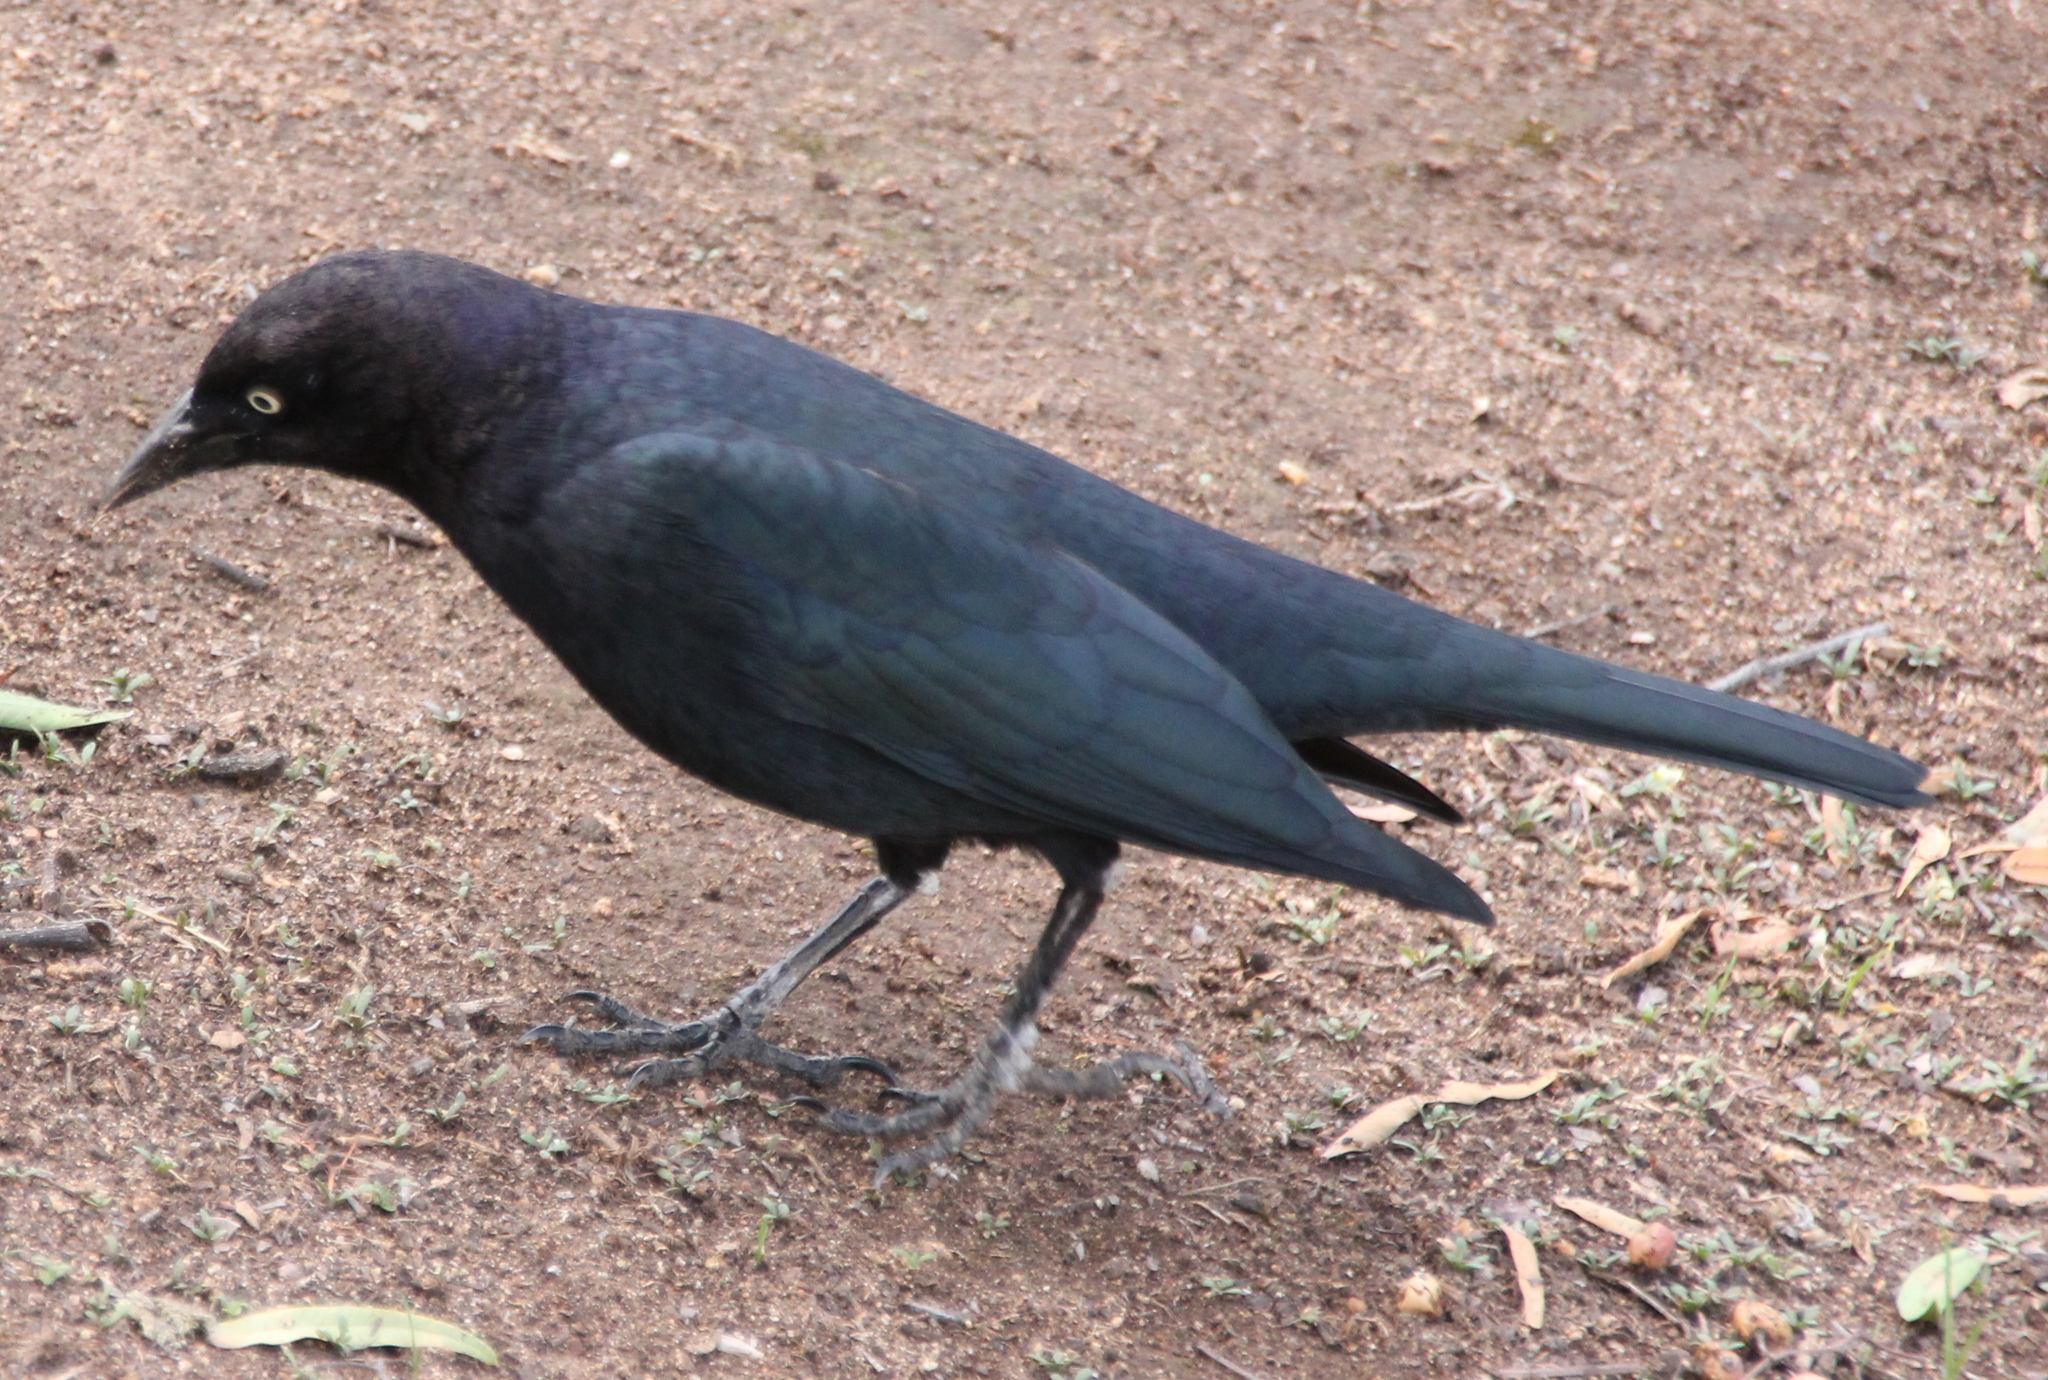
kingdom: Animalia
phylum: Chordata
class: Aves
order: Passeriformes
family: Icteridae
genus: Euphagus
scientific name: Euphagus cyanocephalus
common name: Brewer's blackbird
